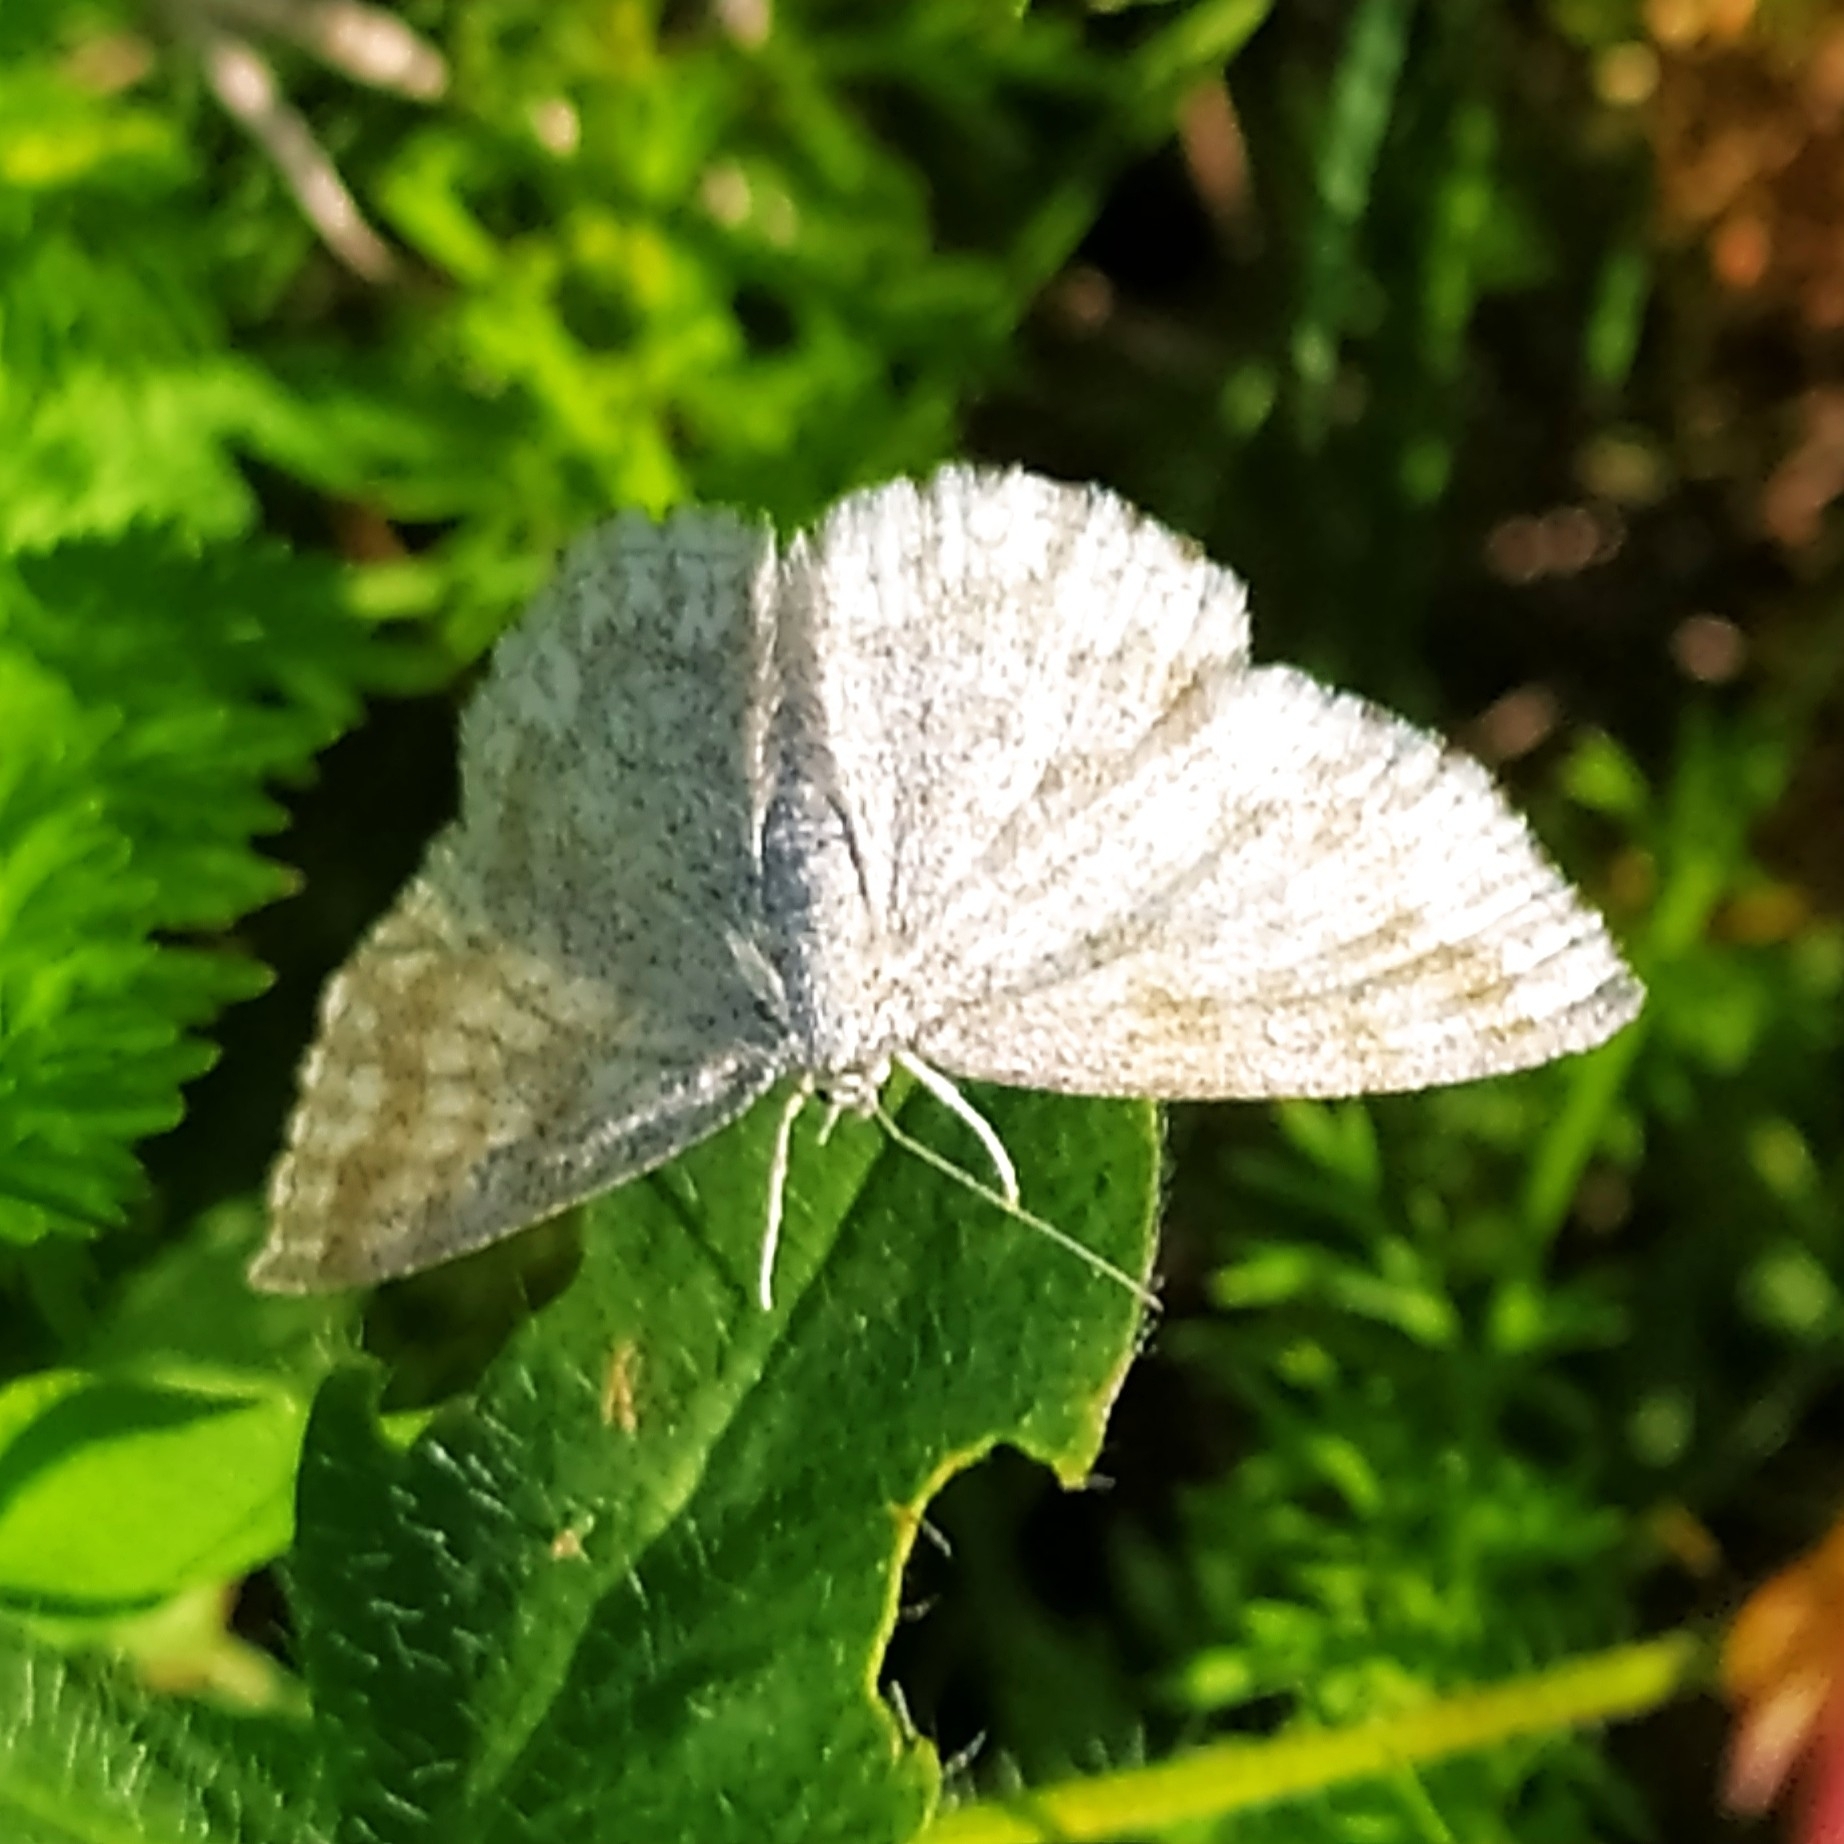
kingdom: Animalia
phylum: Arthropoda
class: Insecta
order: Lepidoptera
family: Geometridae
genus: Scopula
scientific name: Scopula immorata
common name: Lewes wave
